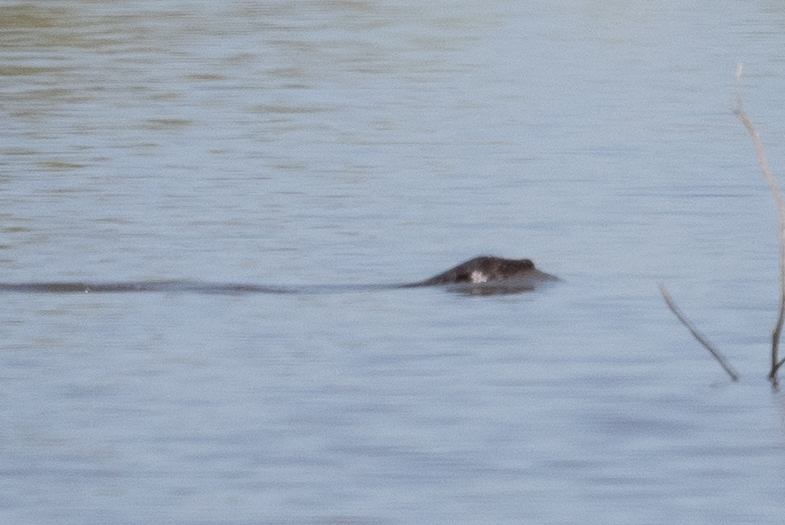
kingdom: Animalia
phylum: Chordata
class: Mammalia
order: Carnivora
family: Mustelidae
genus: Lontra
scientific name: Lontra canadensis
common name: North american river otter
